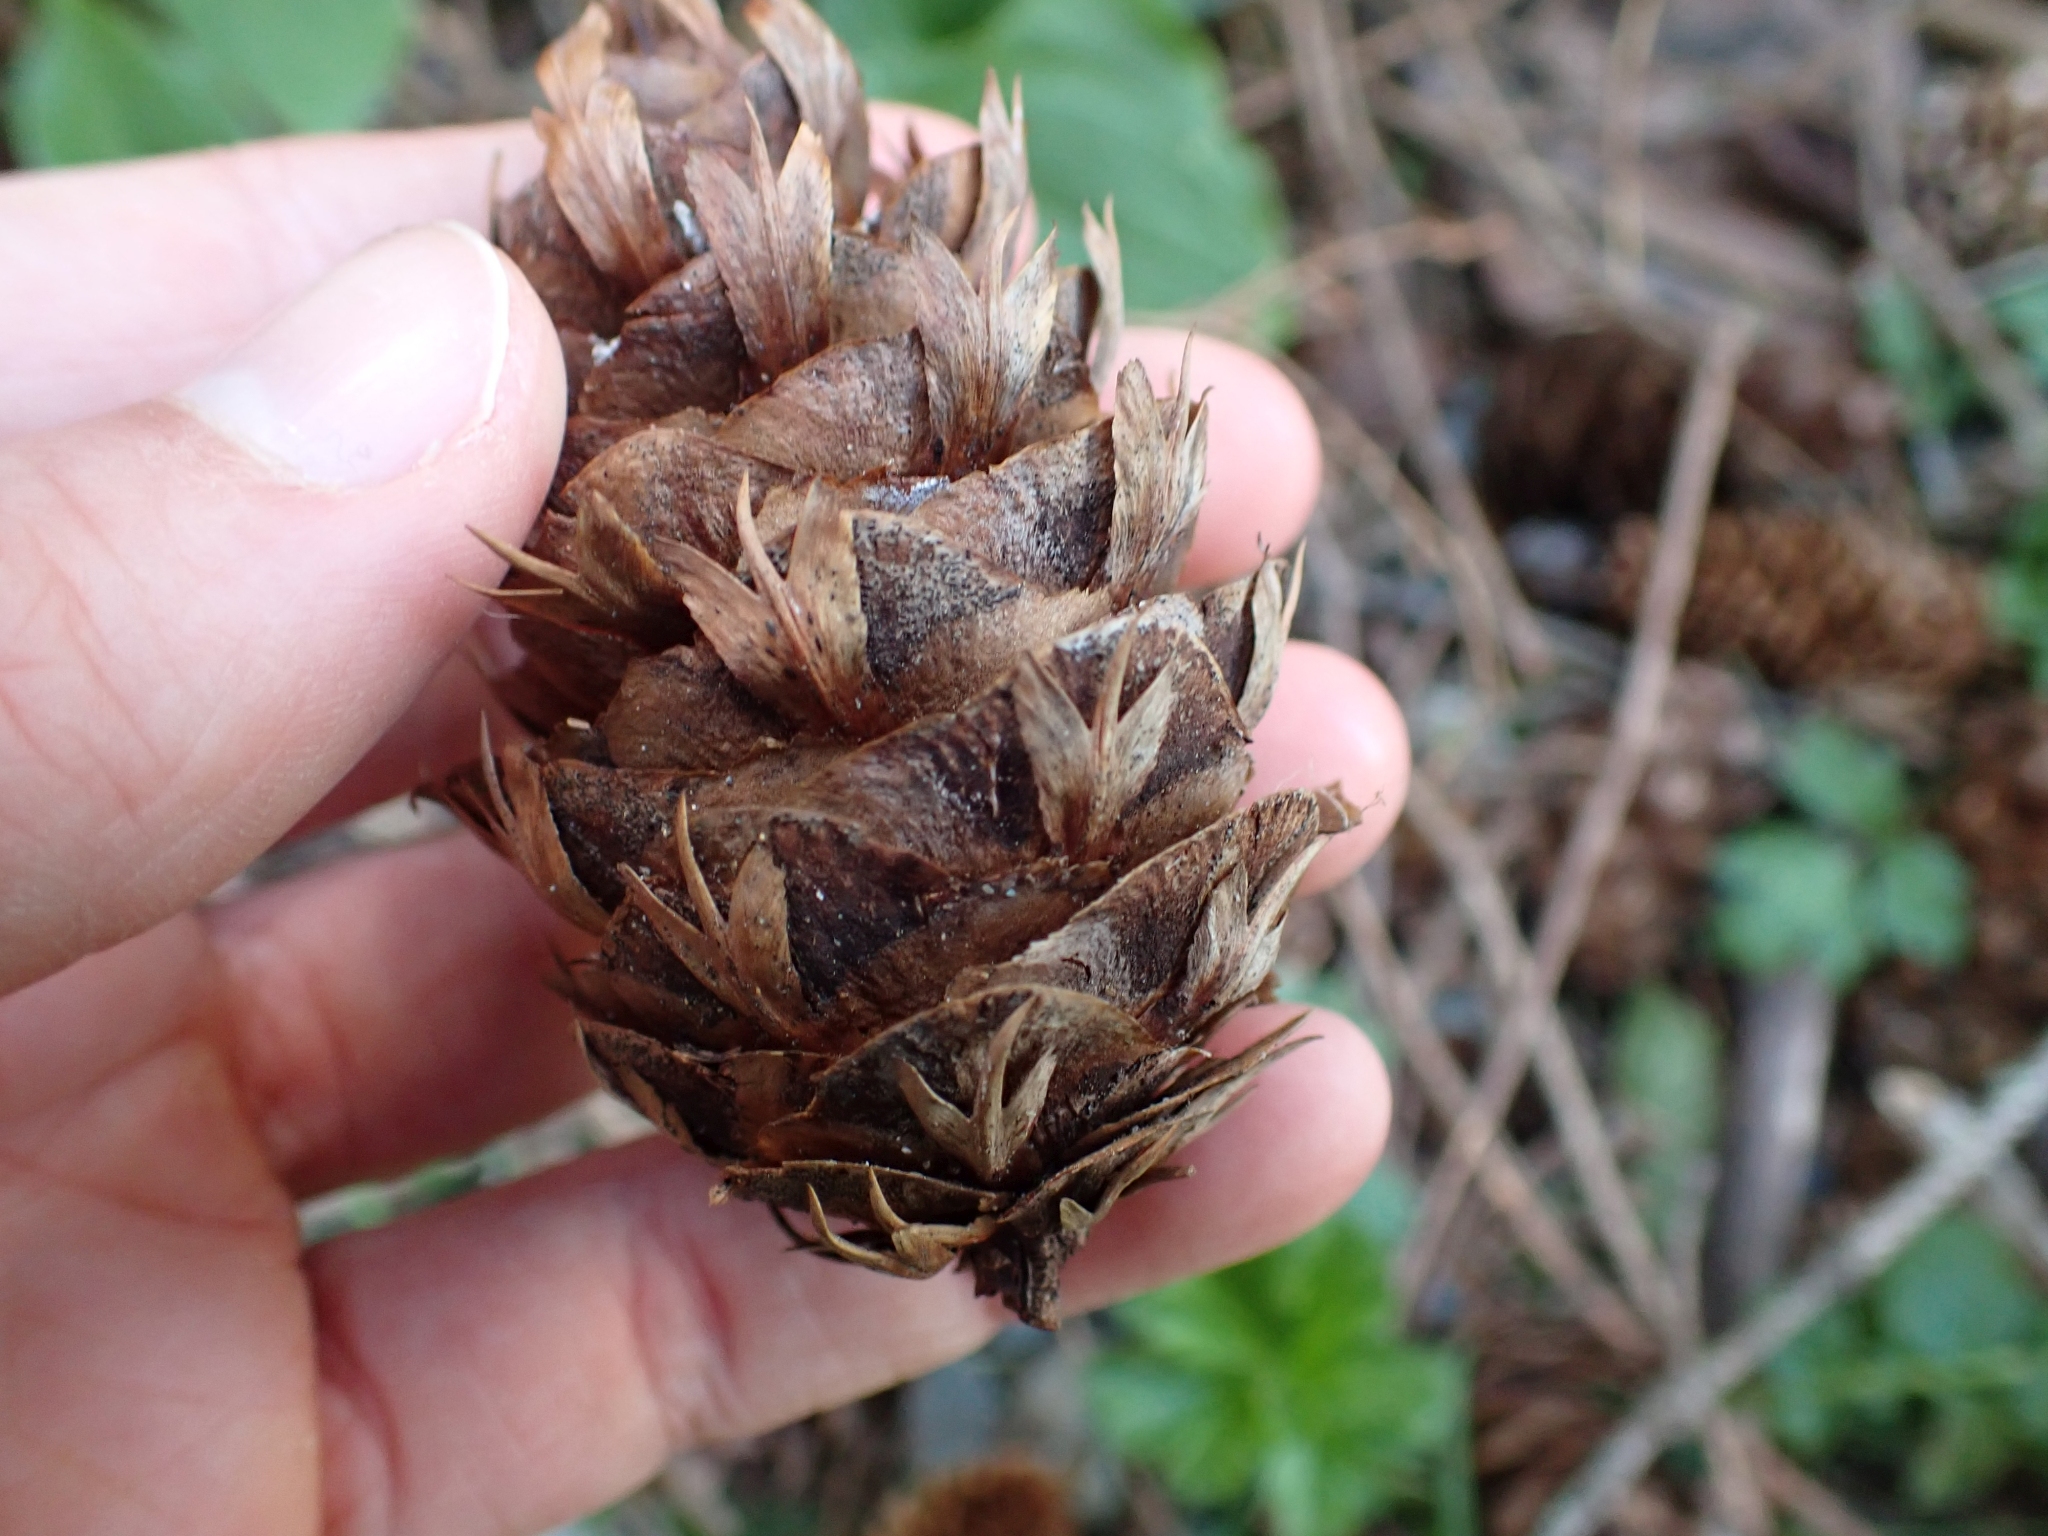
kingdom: Plantae
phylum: Tracheophyta
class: Pinopsida
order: Pinales
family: Pinaceae
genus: Pseudotsuga
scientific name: Pseudotsuga menziesii
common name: Douglas fir
